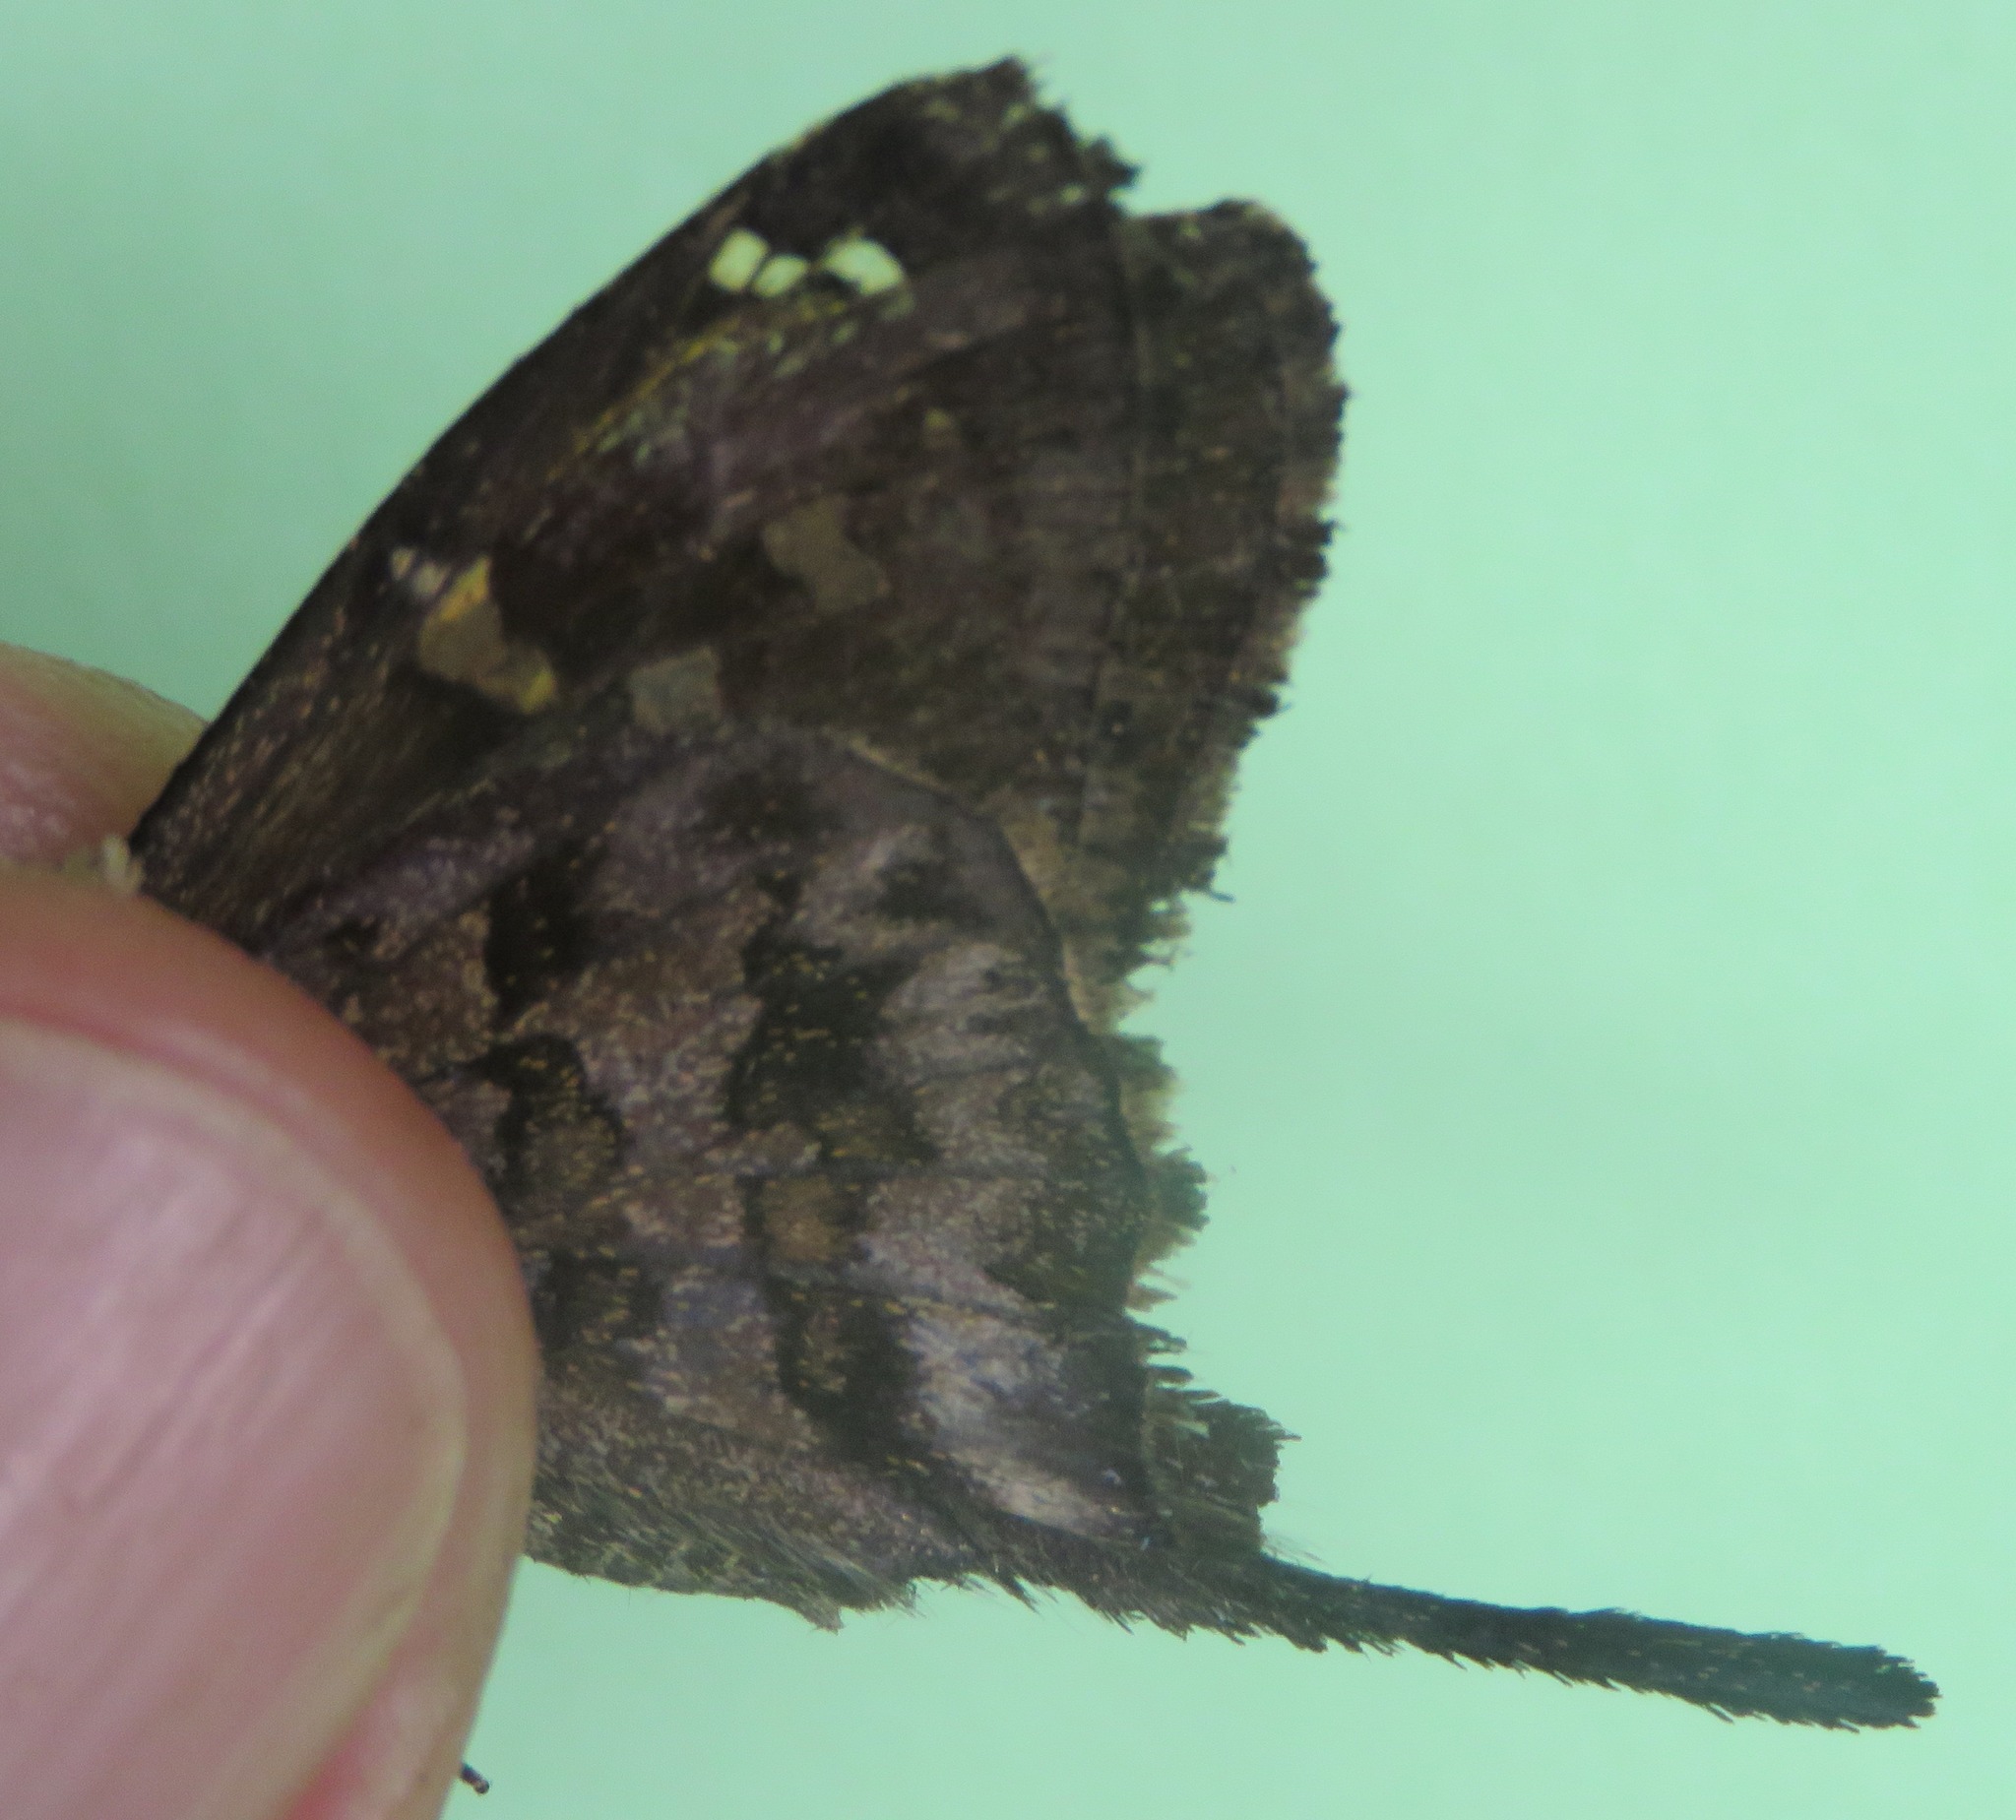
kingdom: Animalia
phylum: Arthropoda
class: Insecta
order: Lepidoptera
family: Hesperiidae
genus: Thorybes
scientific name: Thorybes
